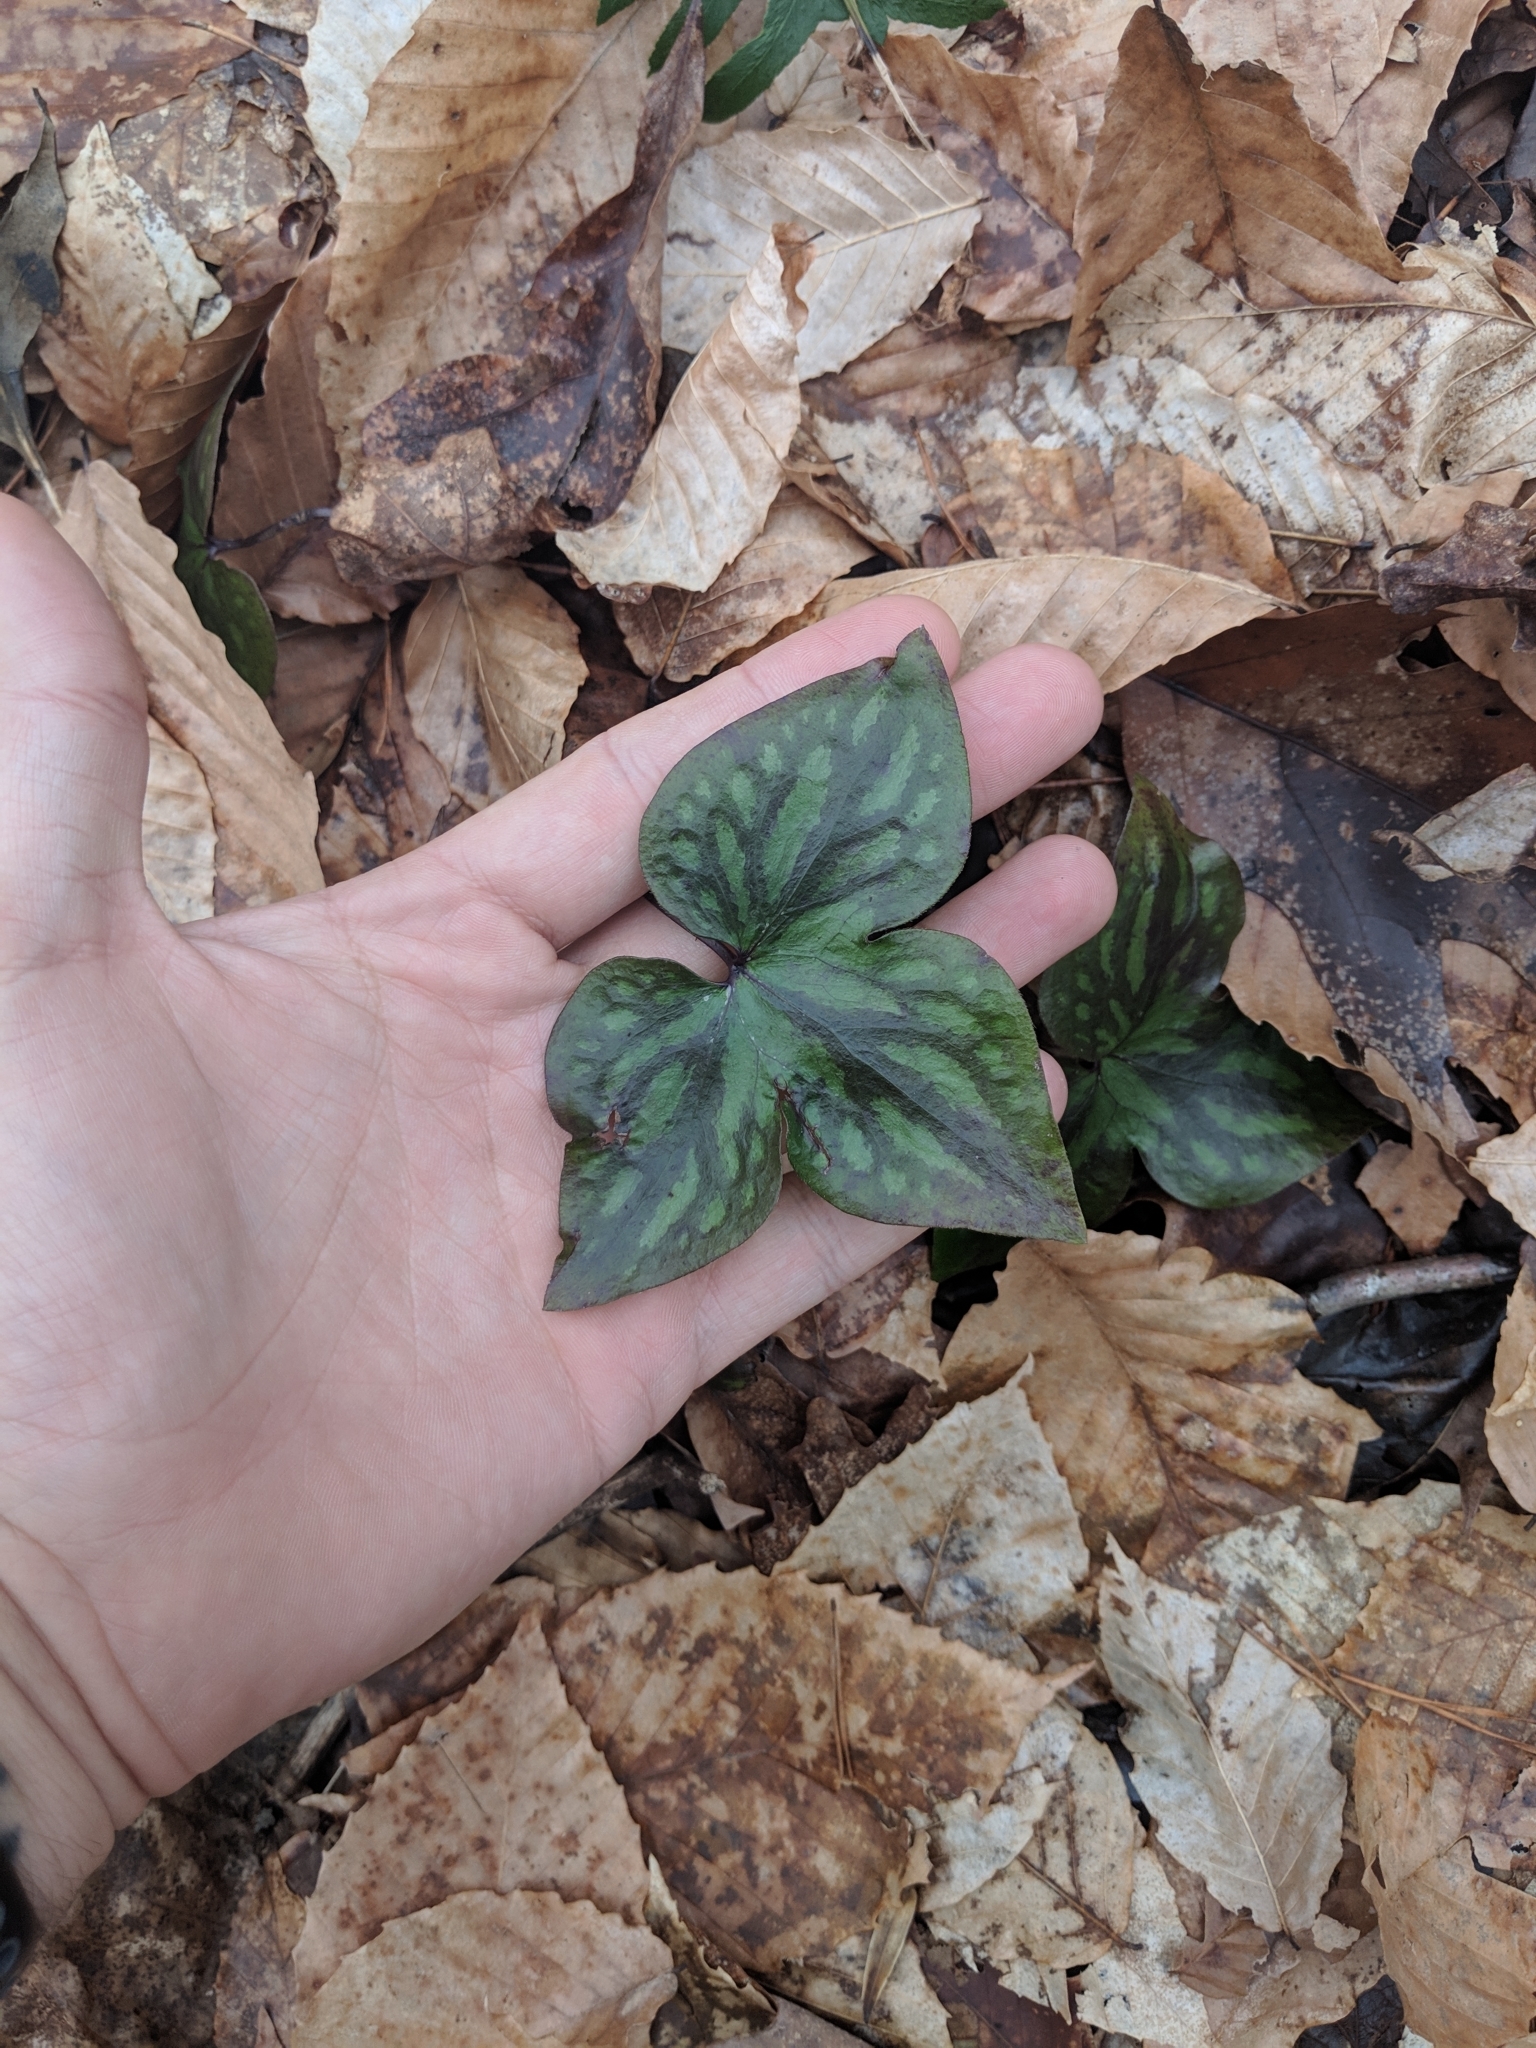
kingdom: Plantae
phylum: Tracheophyta
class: Magnoliopsida
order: Ranunculales
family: Ranunculaceae
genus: Hepatica
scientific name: Hepatica acutiloba
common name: Sharp-lobed hepatica
